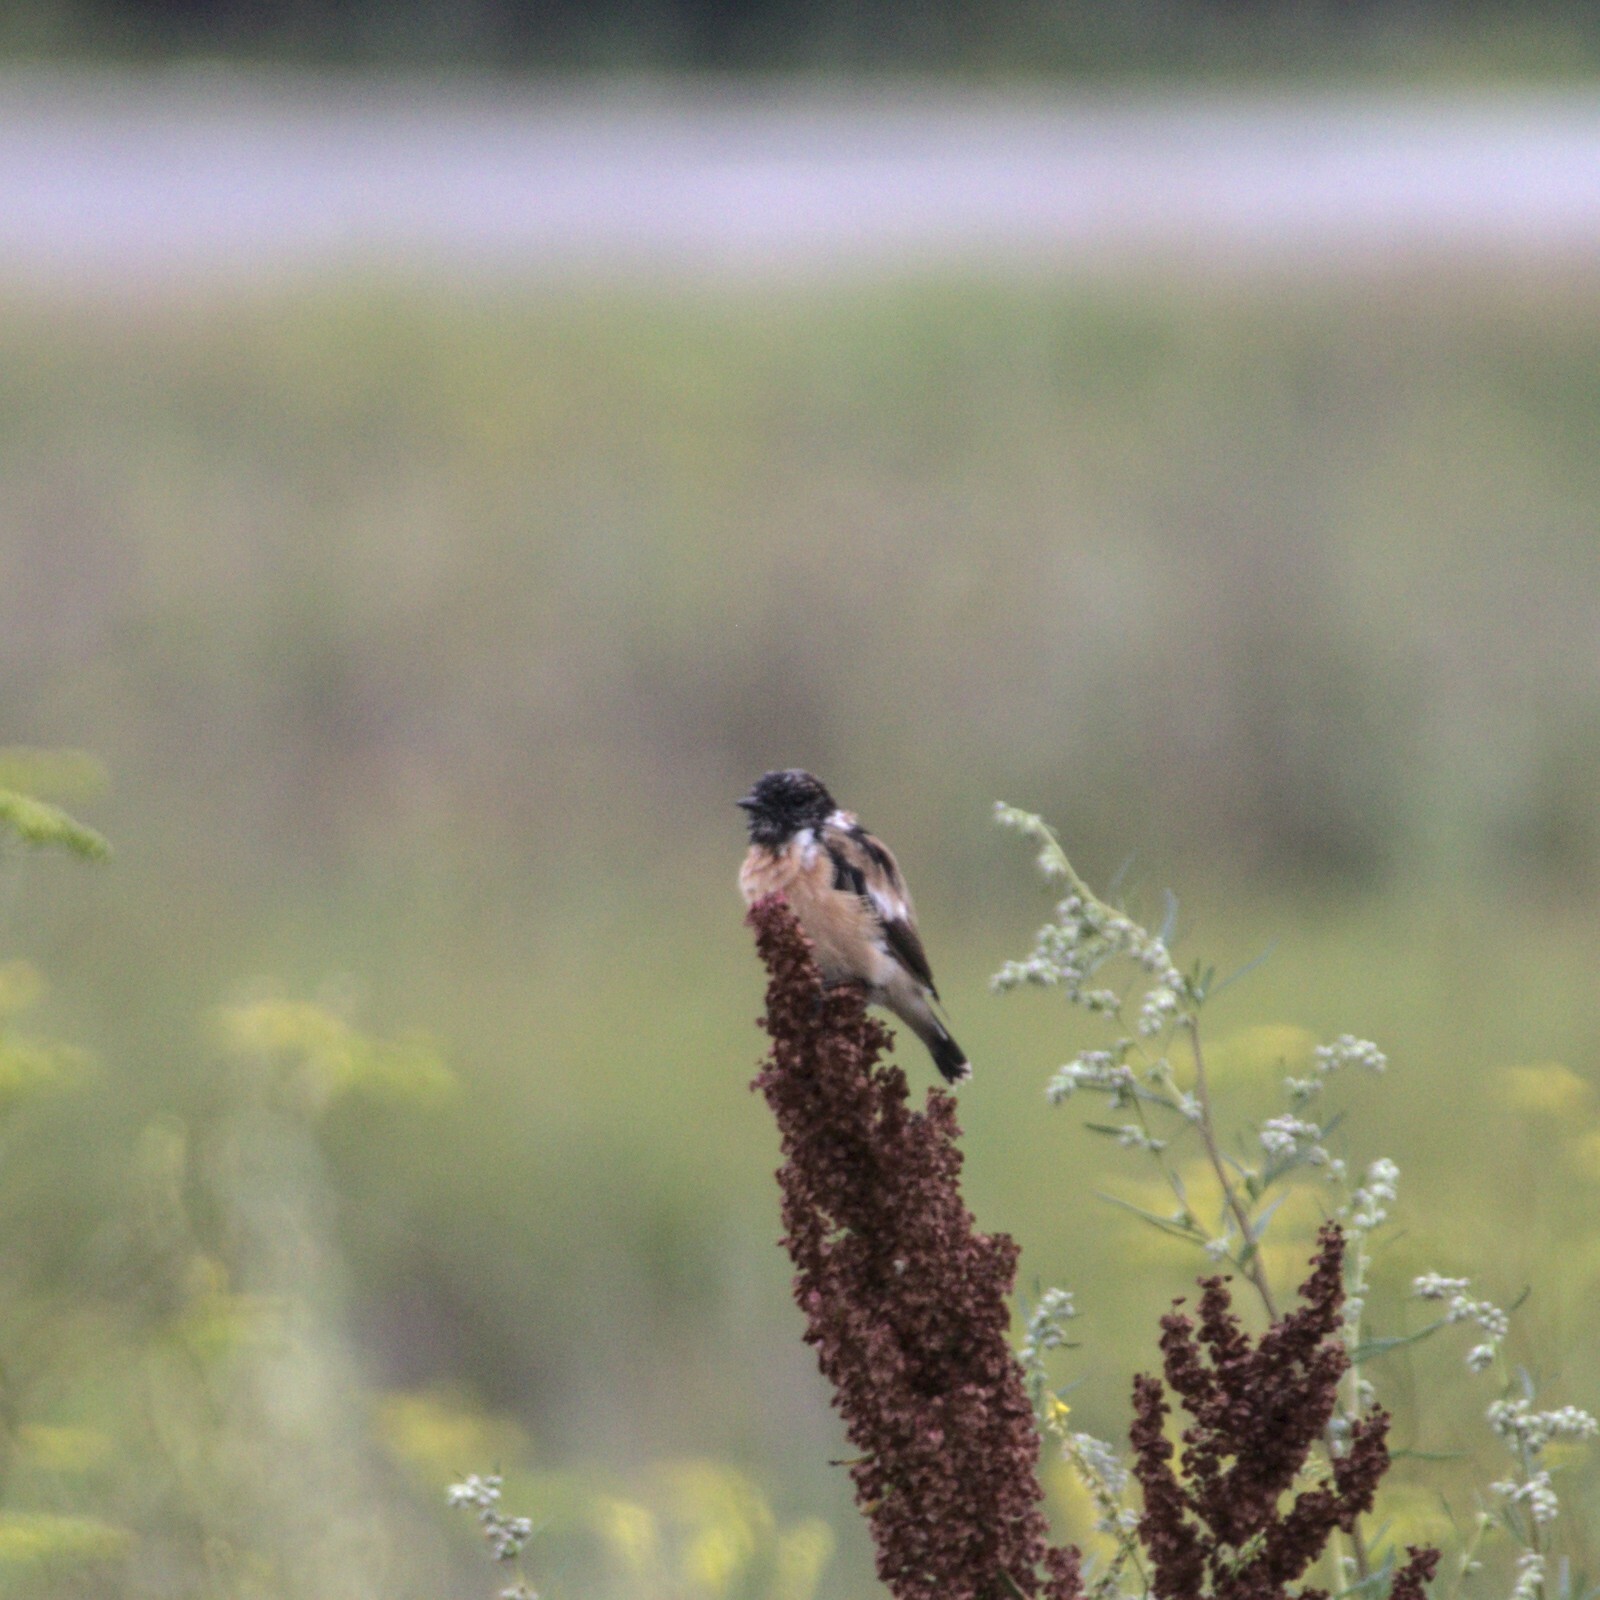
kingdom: Animalia
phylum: Chordata
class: Aves
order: Passeriformes
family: Muscicapidae
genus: Saxicola
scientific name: Saxicola maurus
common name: Siberian stonechat
